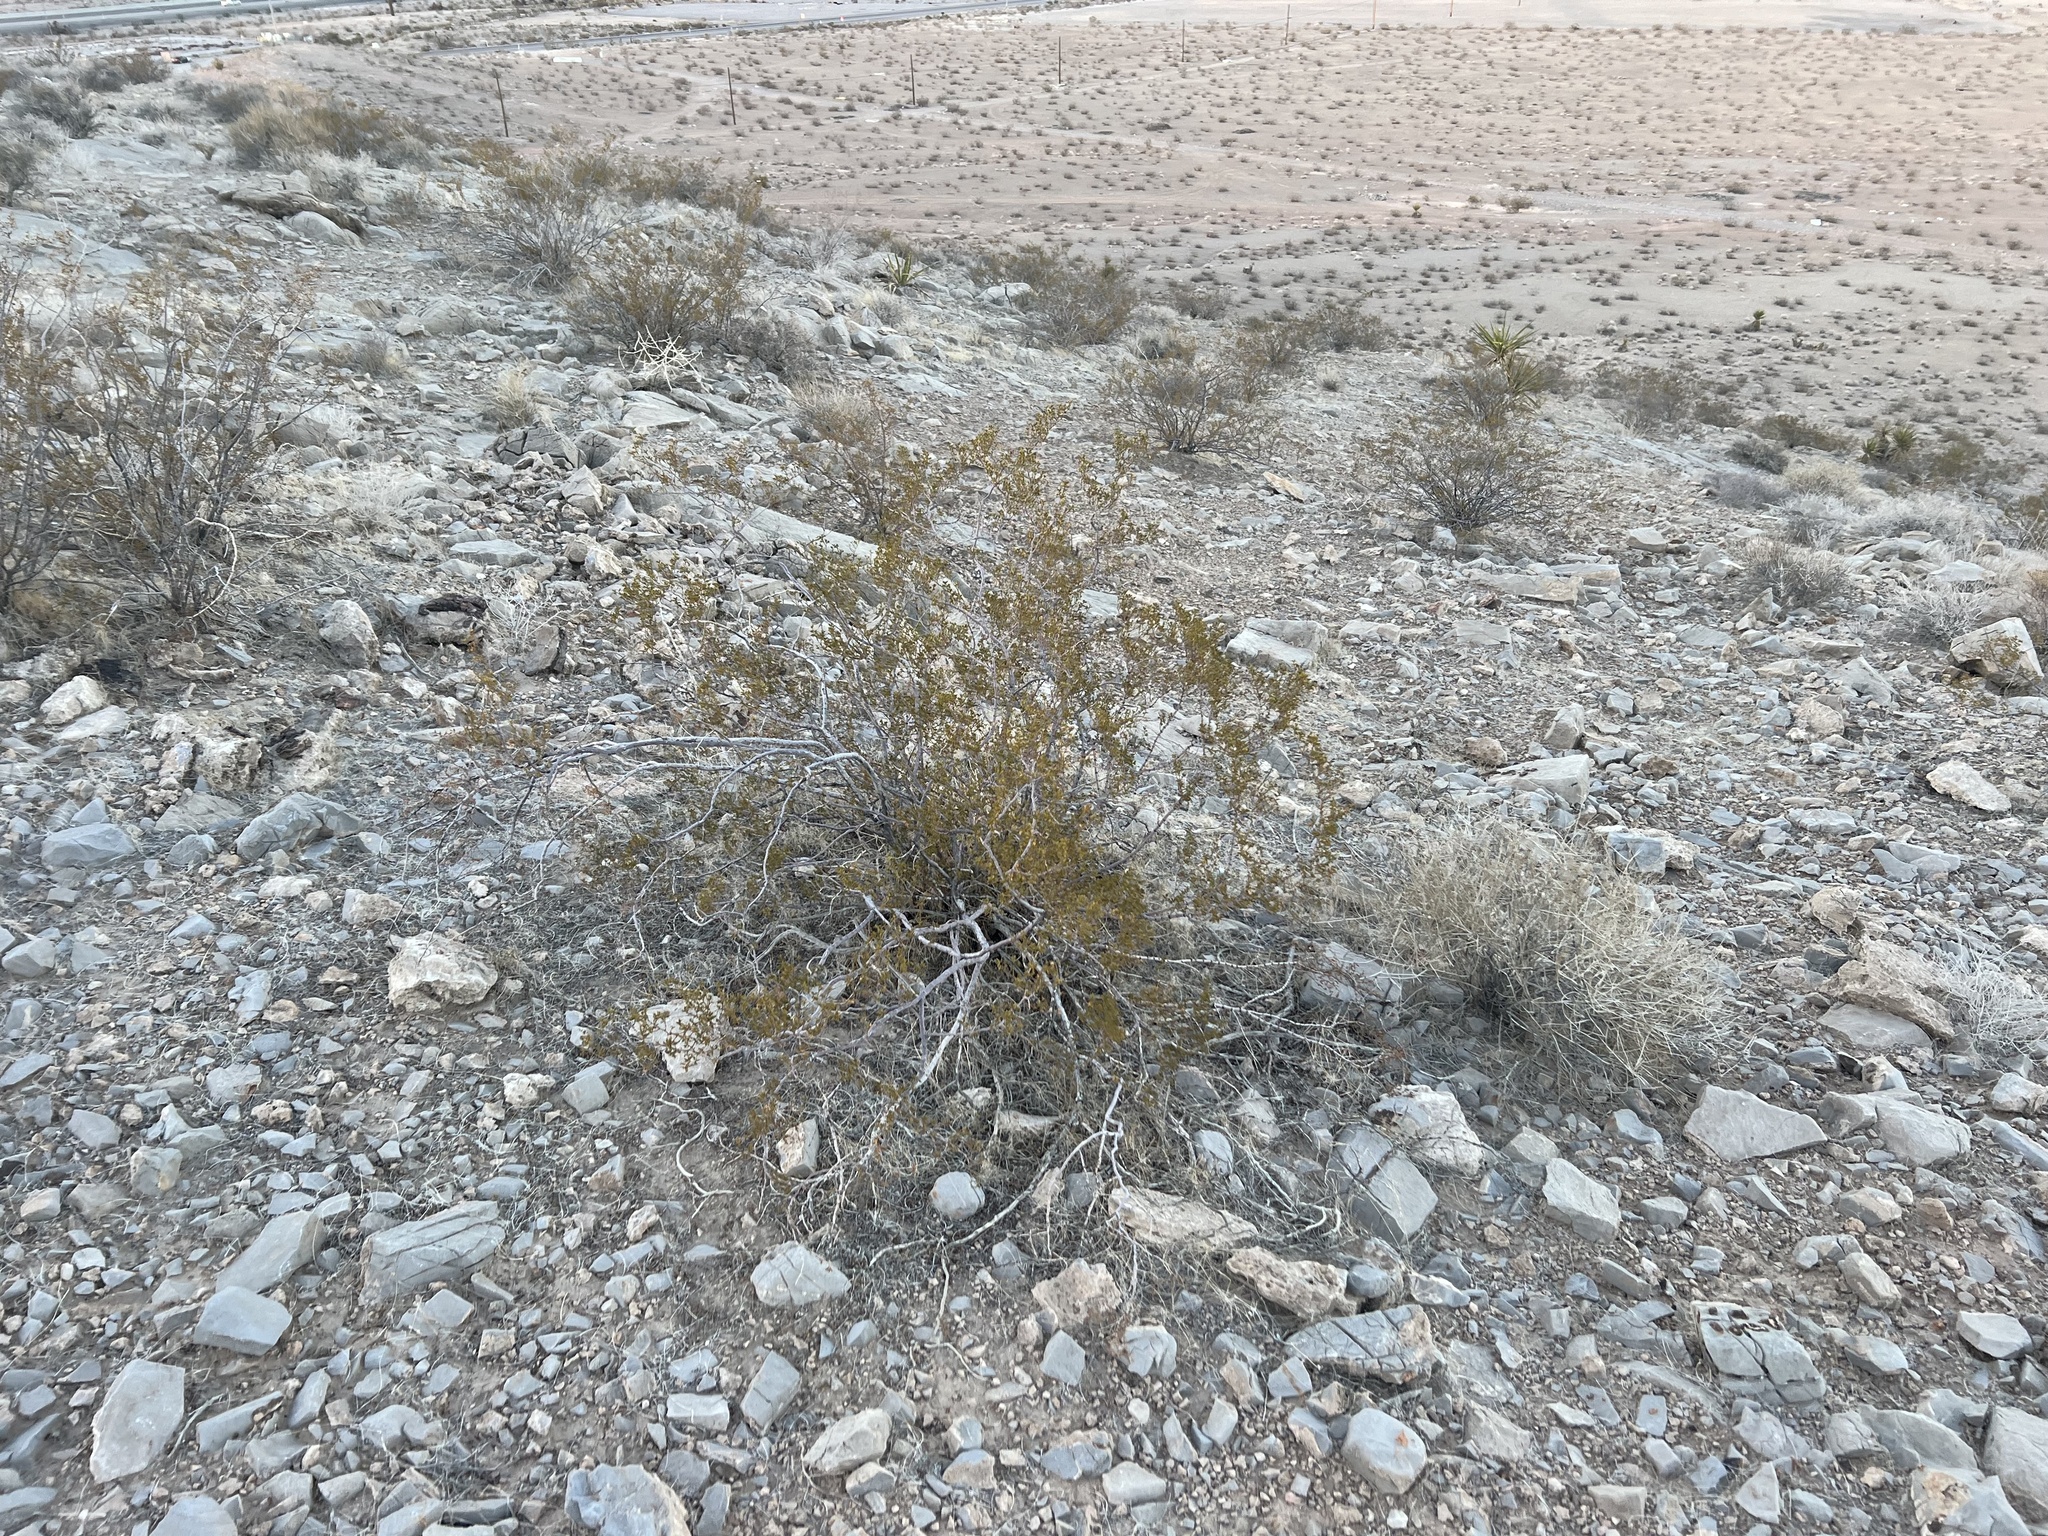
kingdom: Plantae
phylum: Tracheophyta
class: Magnoliopsida
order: Zygophyllales
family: Zygophyllaceae
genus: Larrea
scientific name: Larrea tridentata
